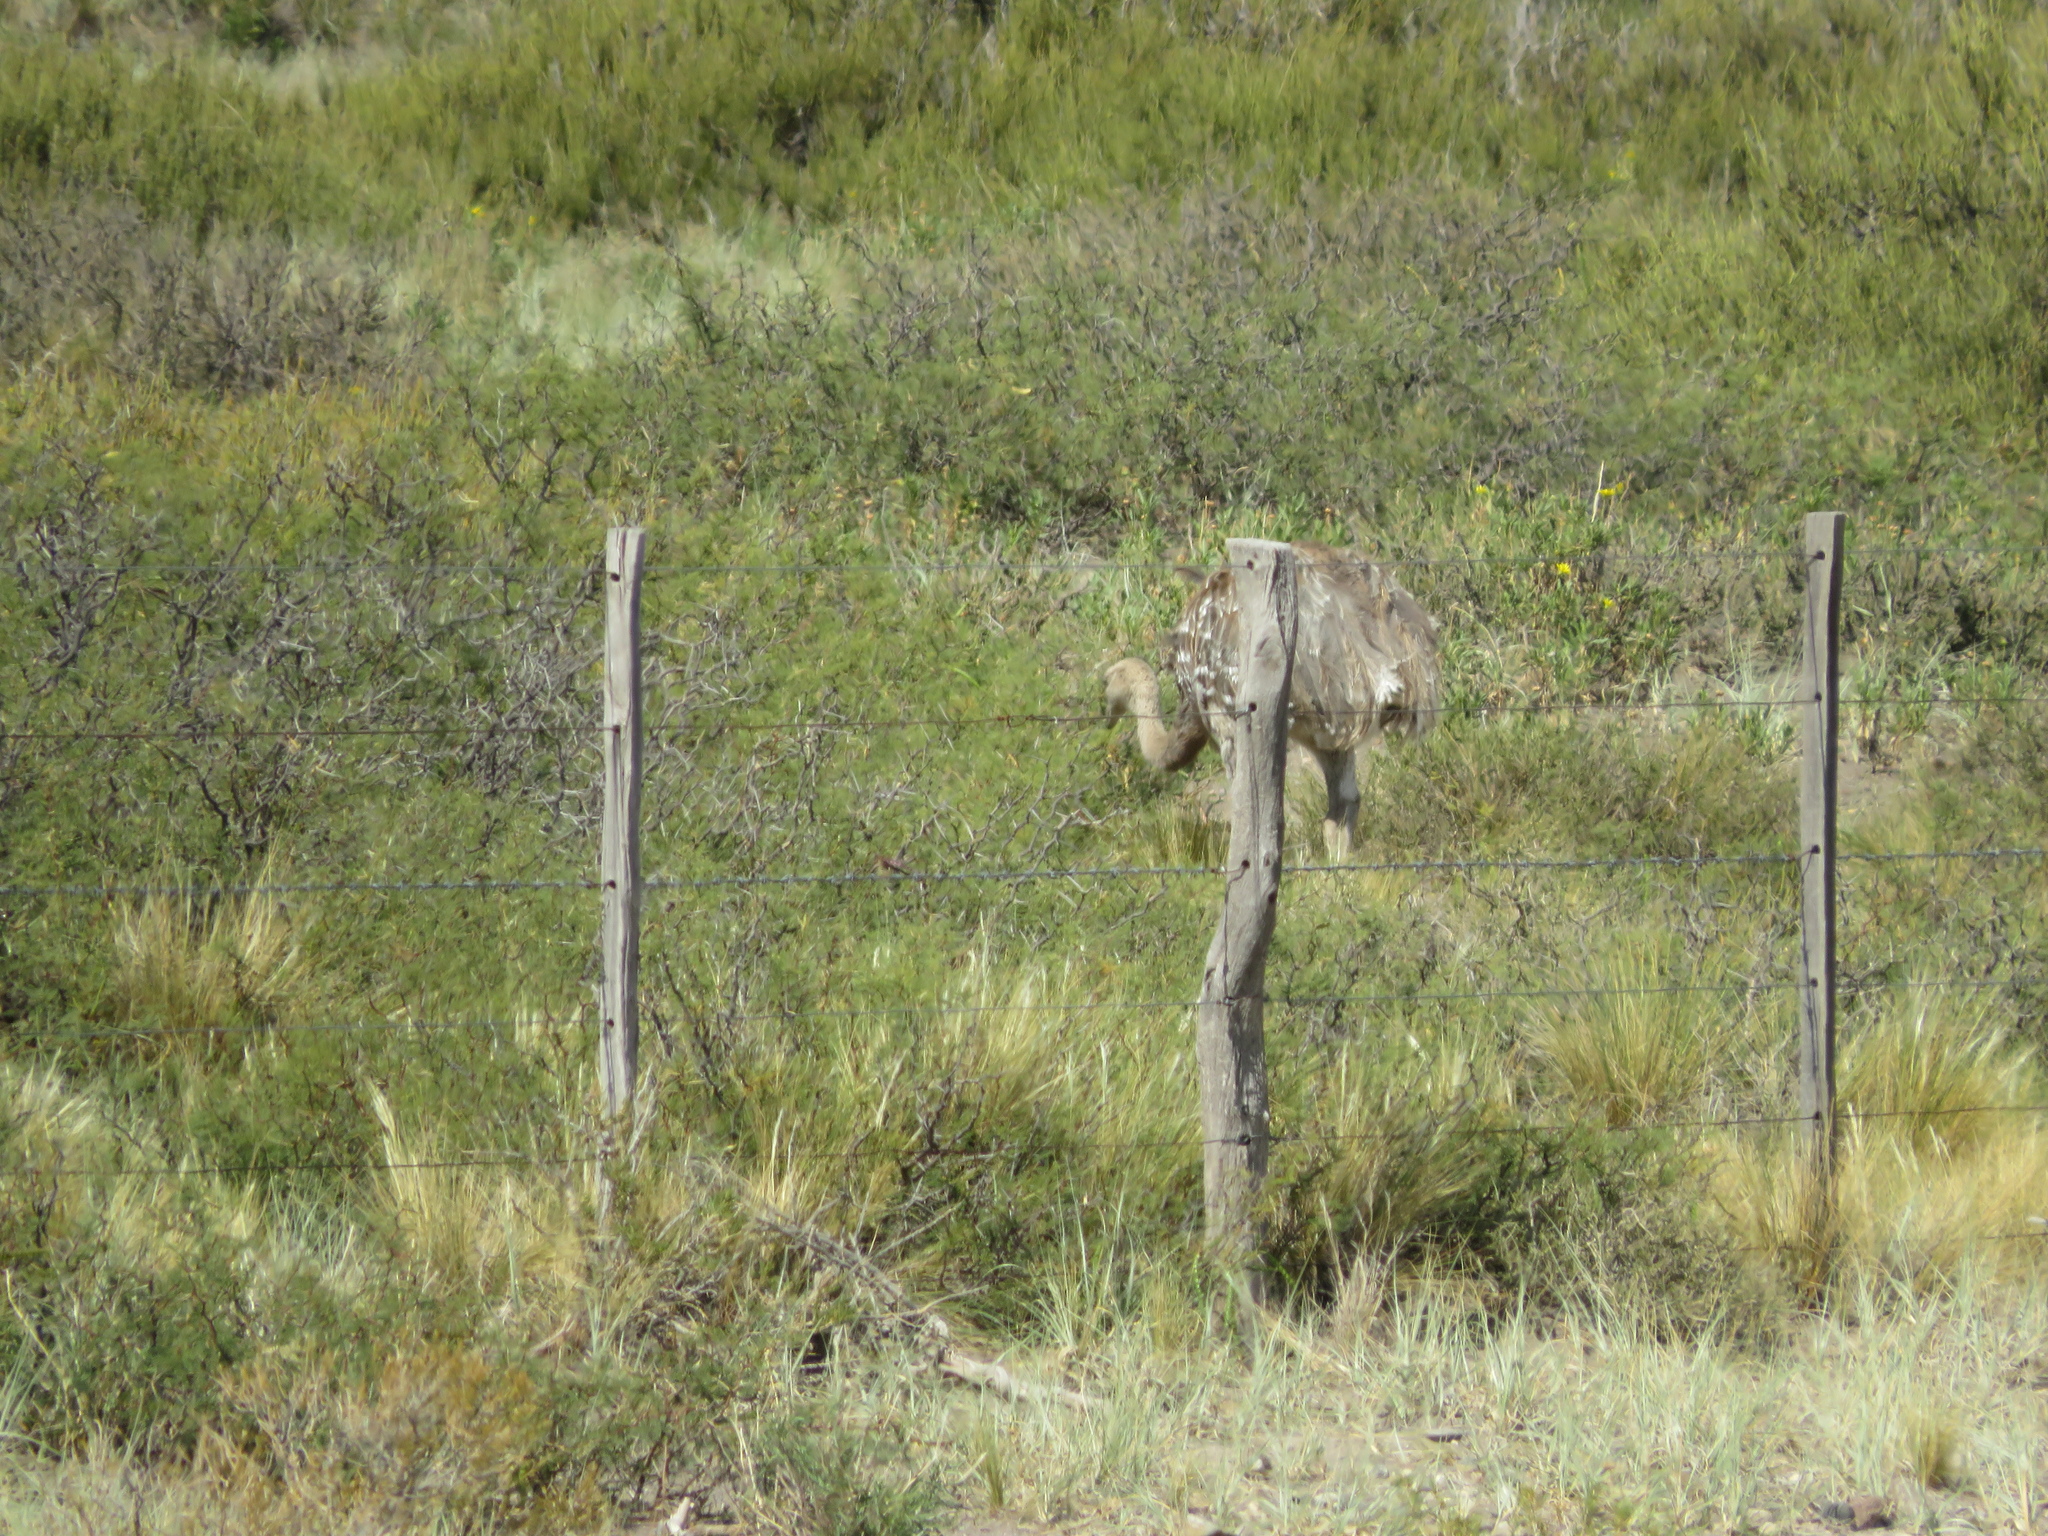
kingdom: Animalia
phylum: Chordata
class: Aves
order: Rheiformes
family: Rheidae
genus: Rhea
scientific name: Rhea pennata
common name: Lesser rhea
